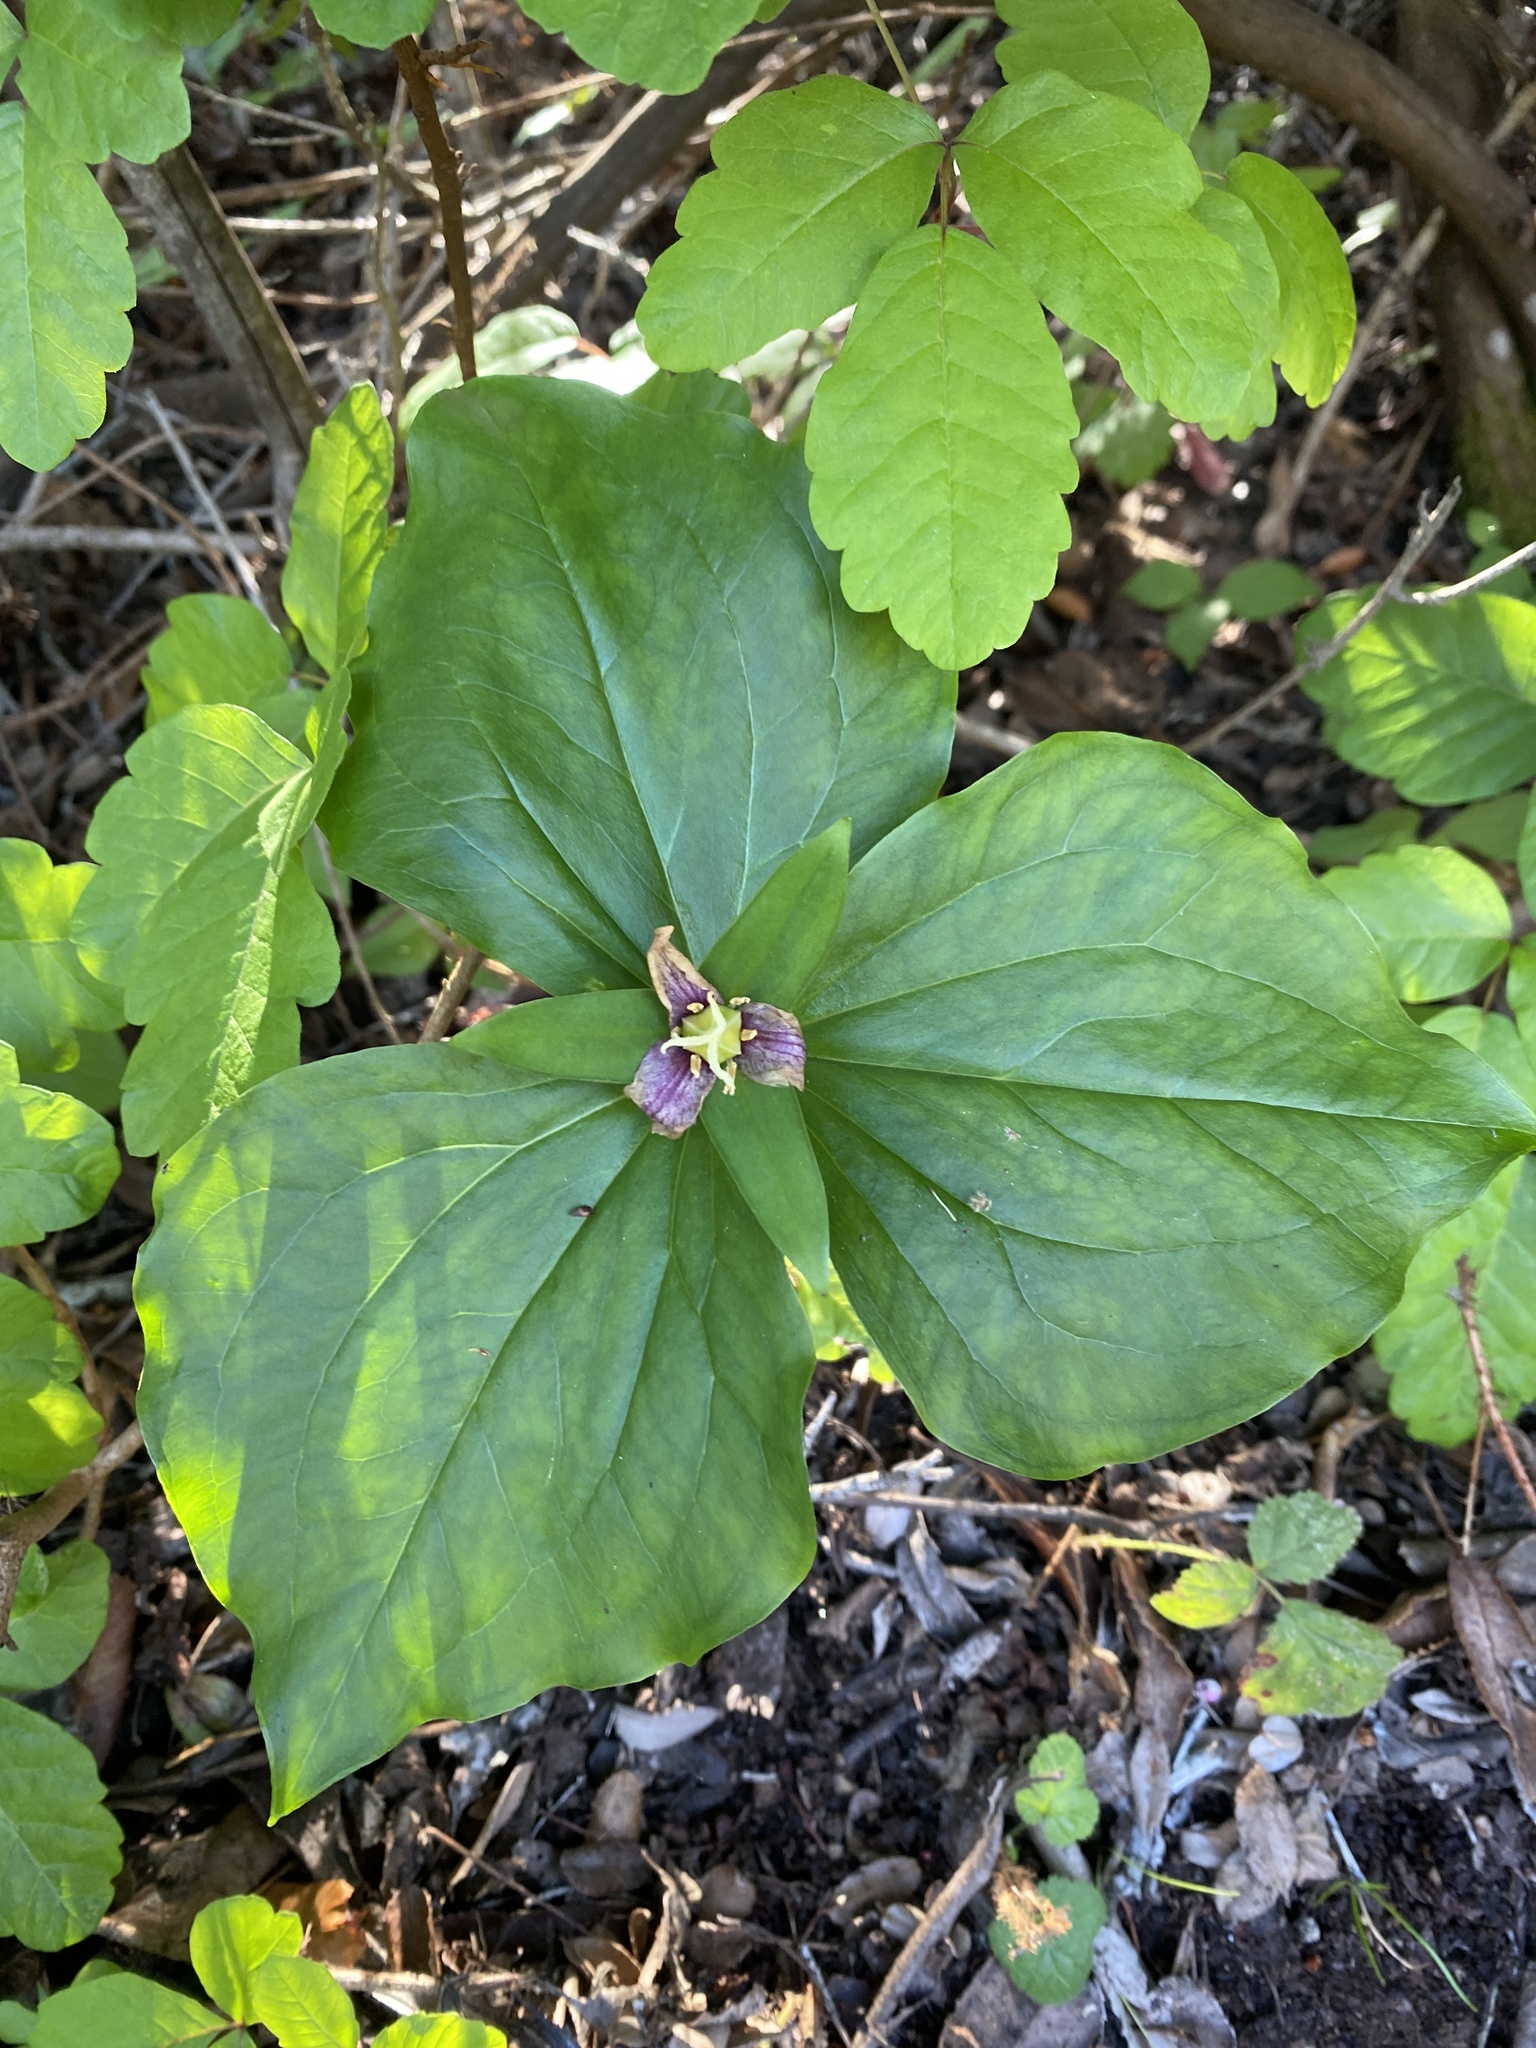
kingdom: Plantae
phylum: Tracheophyta
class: Liliopsida
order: Liliales
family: Melanthiaceae
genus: Trillium
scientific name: Trillium ovatum
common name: Pacific trillium
